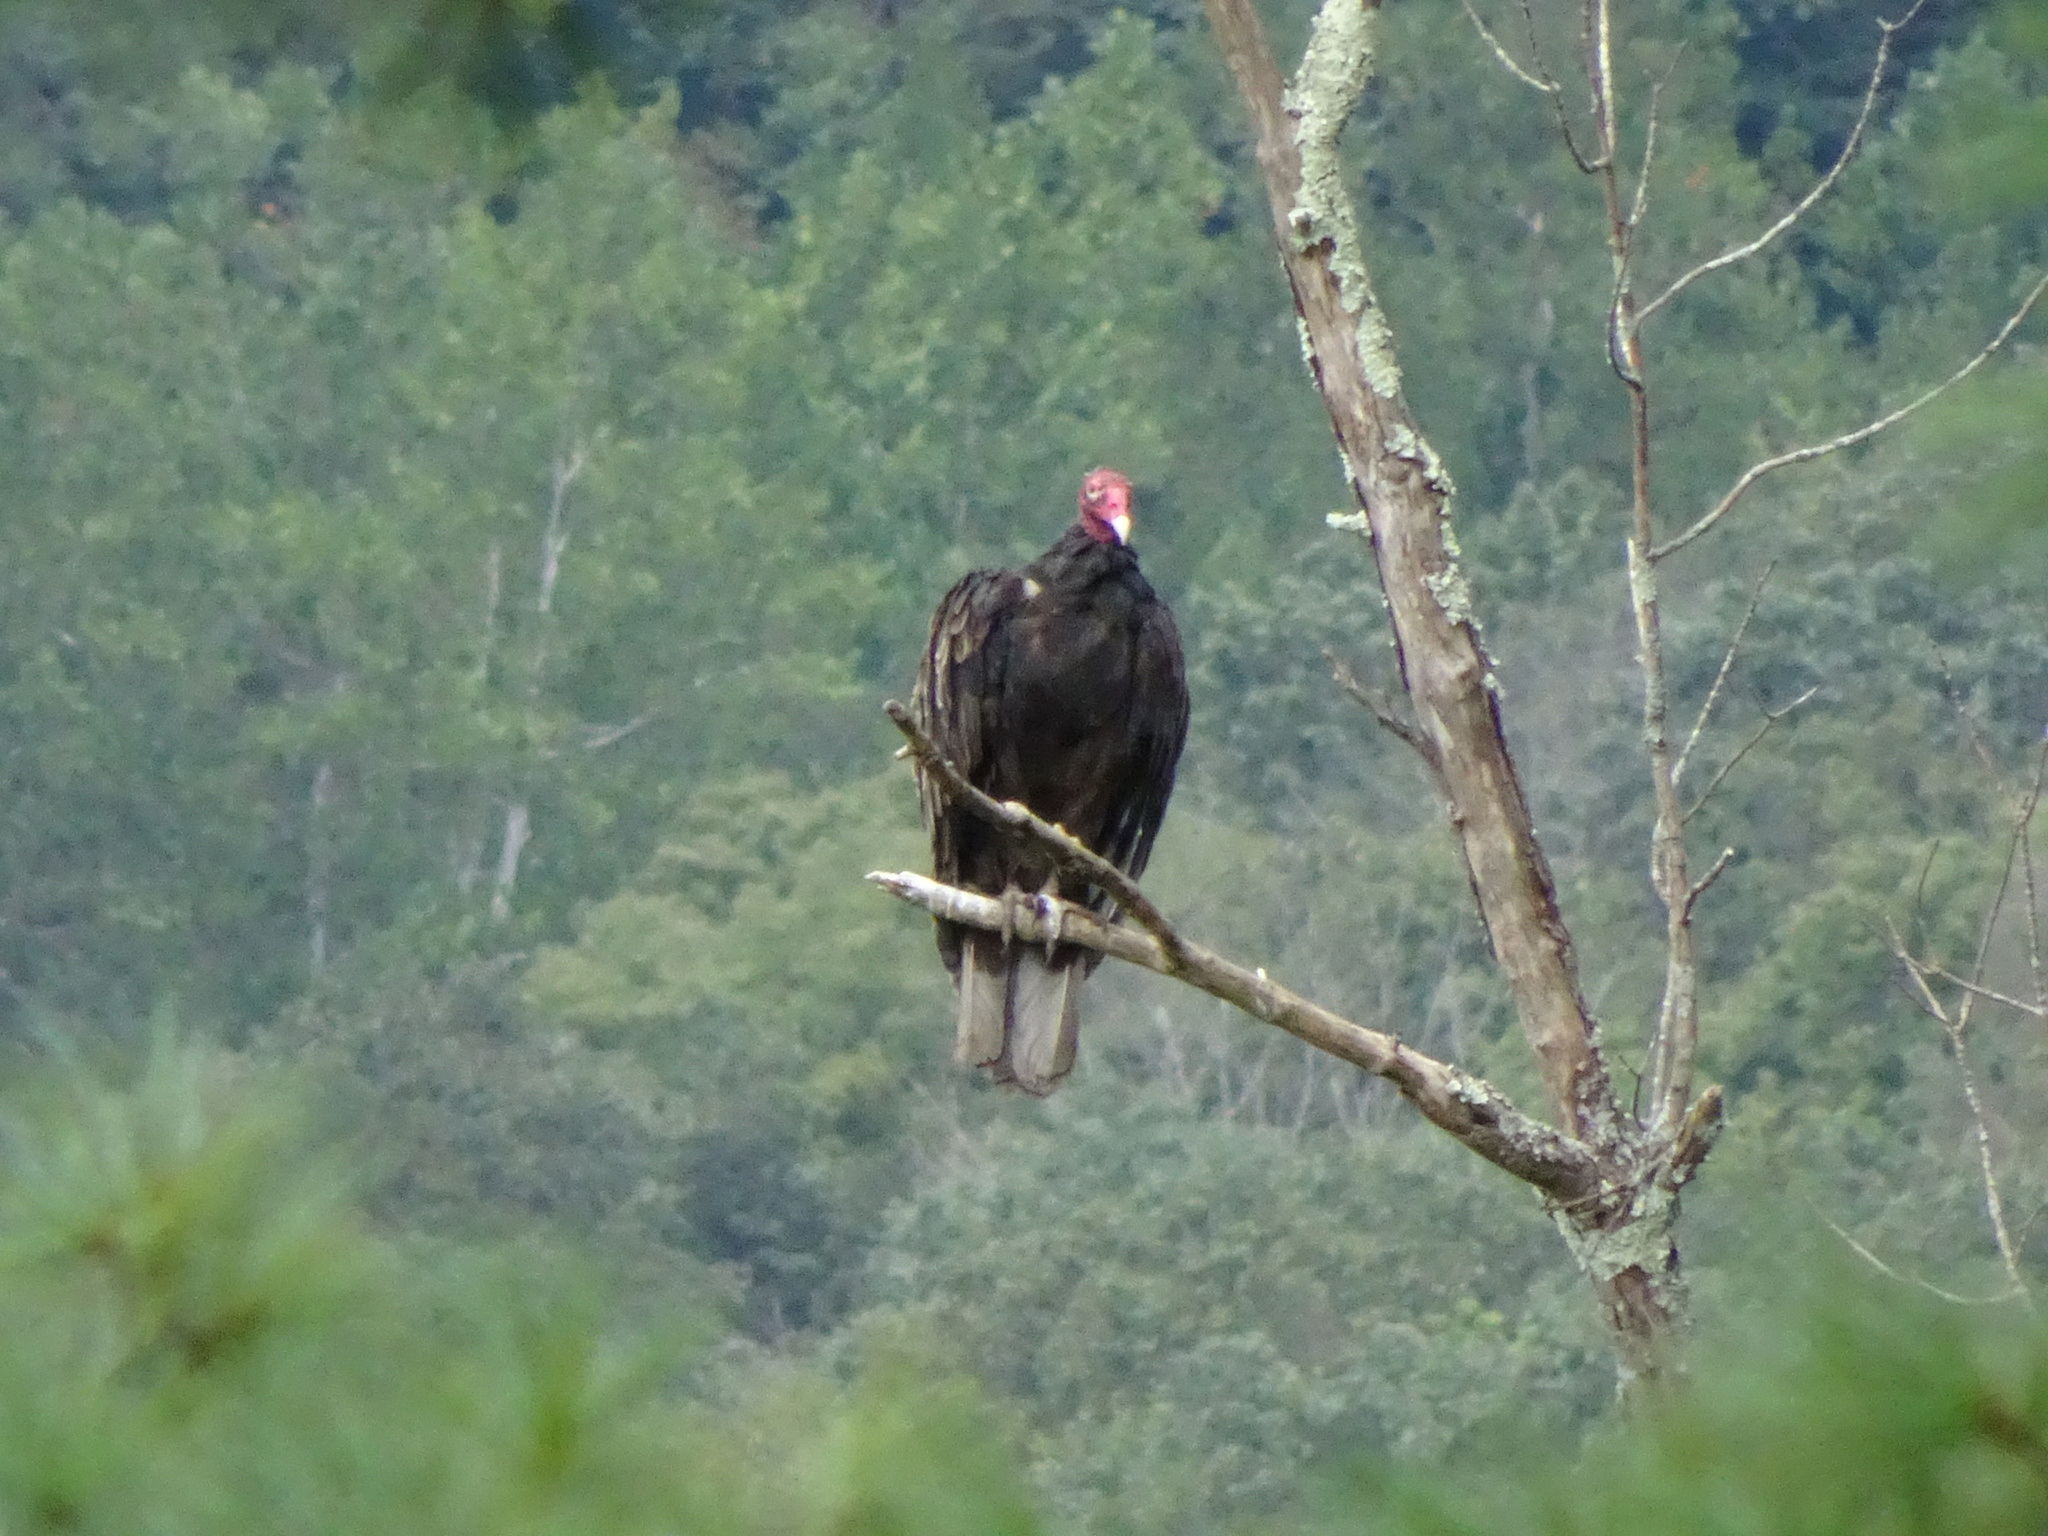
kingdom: Animalia
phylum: Chordata
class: Aves
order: Accipitriformes
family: Cathartidae
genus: Cathartes
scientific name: Cathartes aura
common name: Turkey vulture
